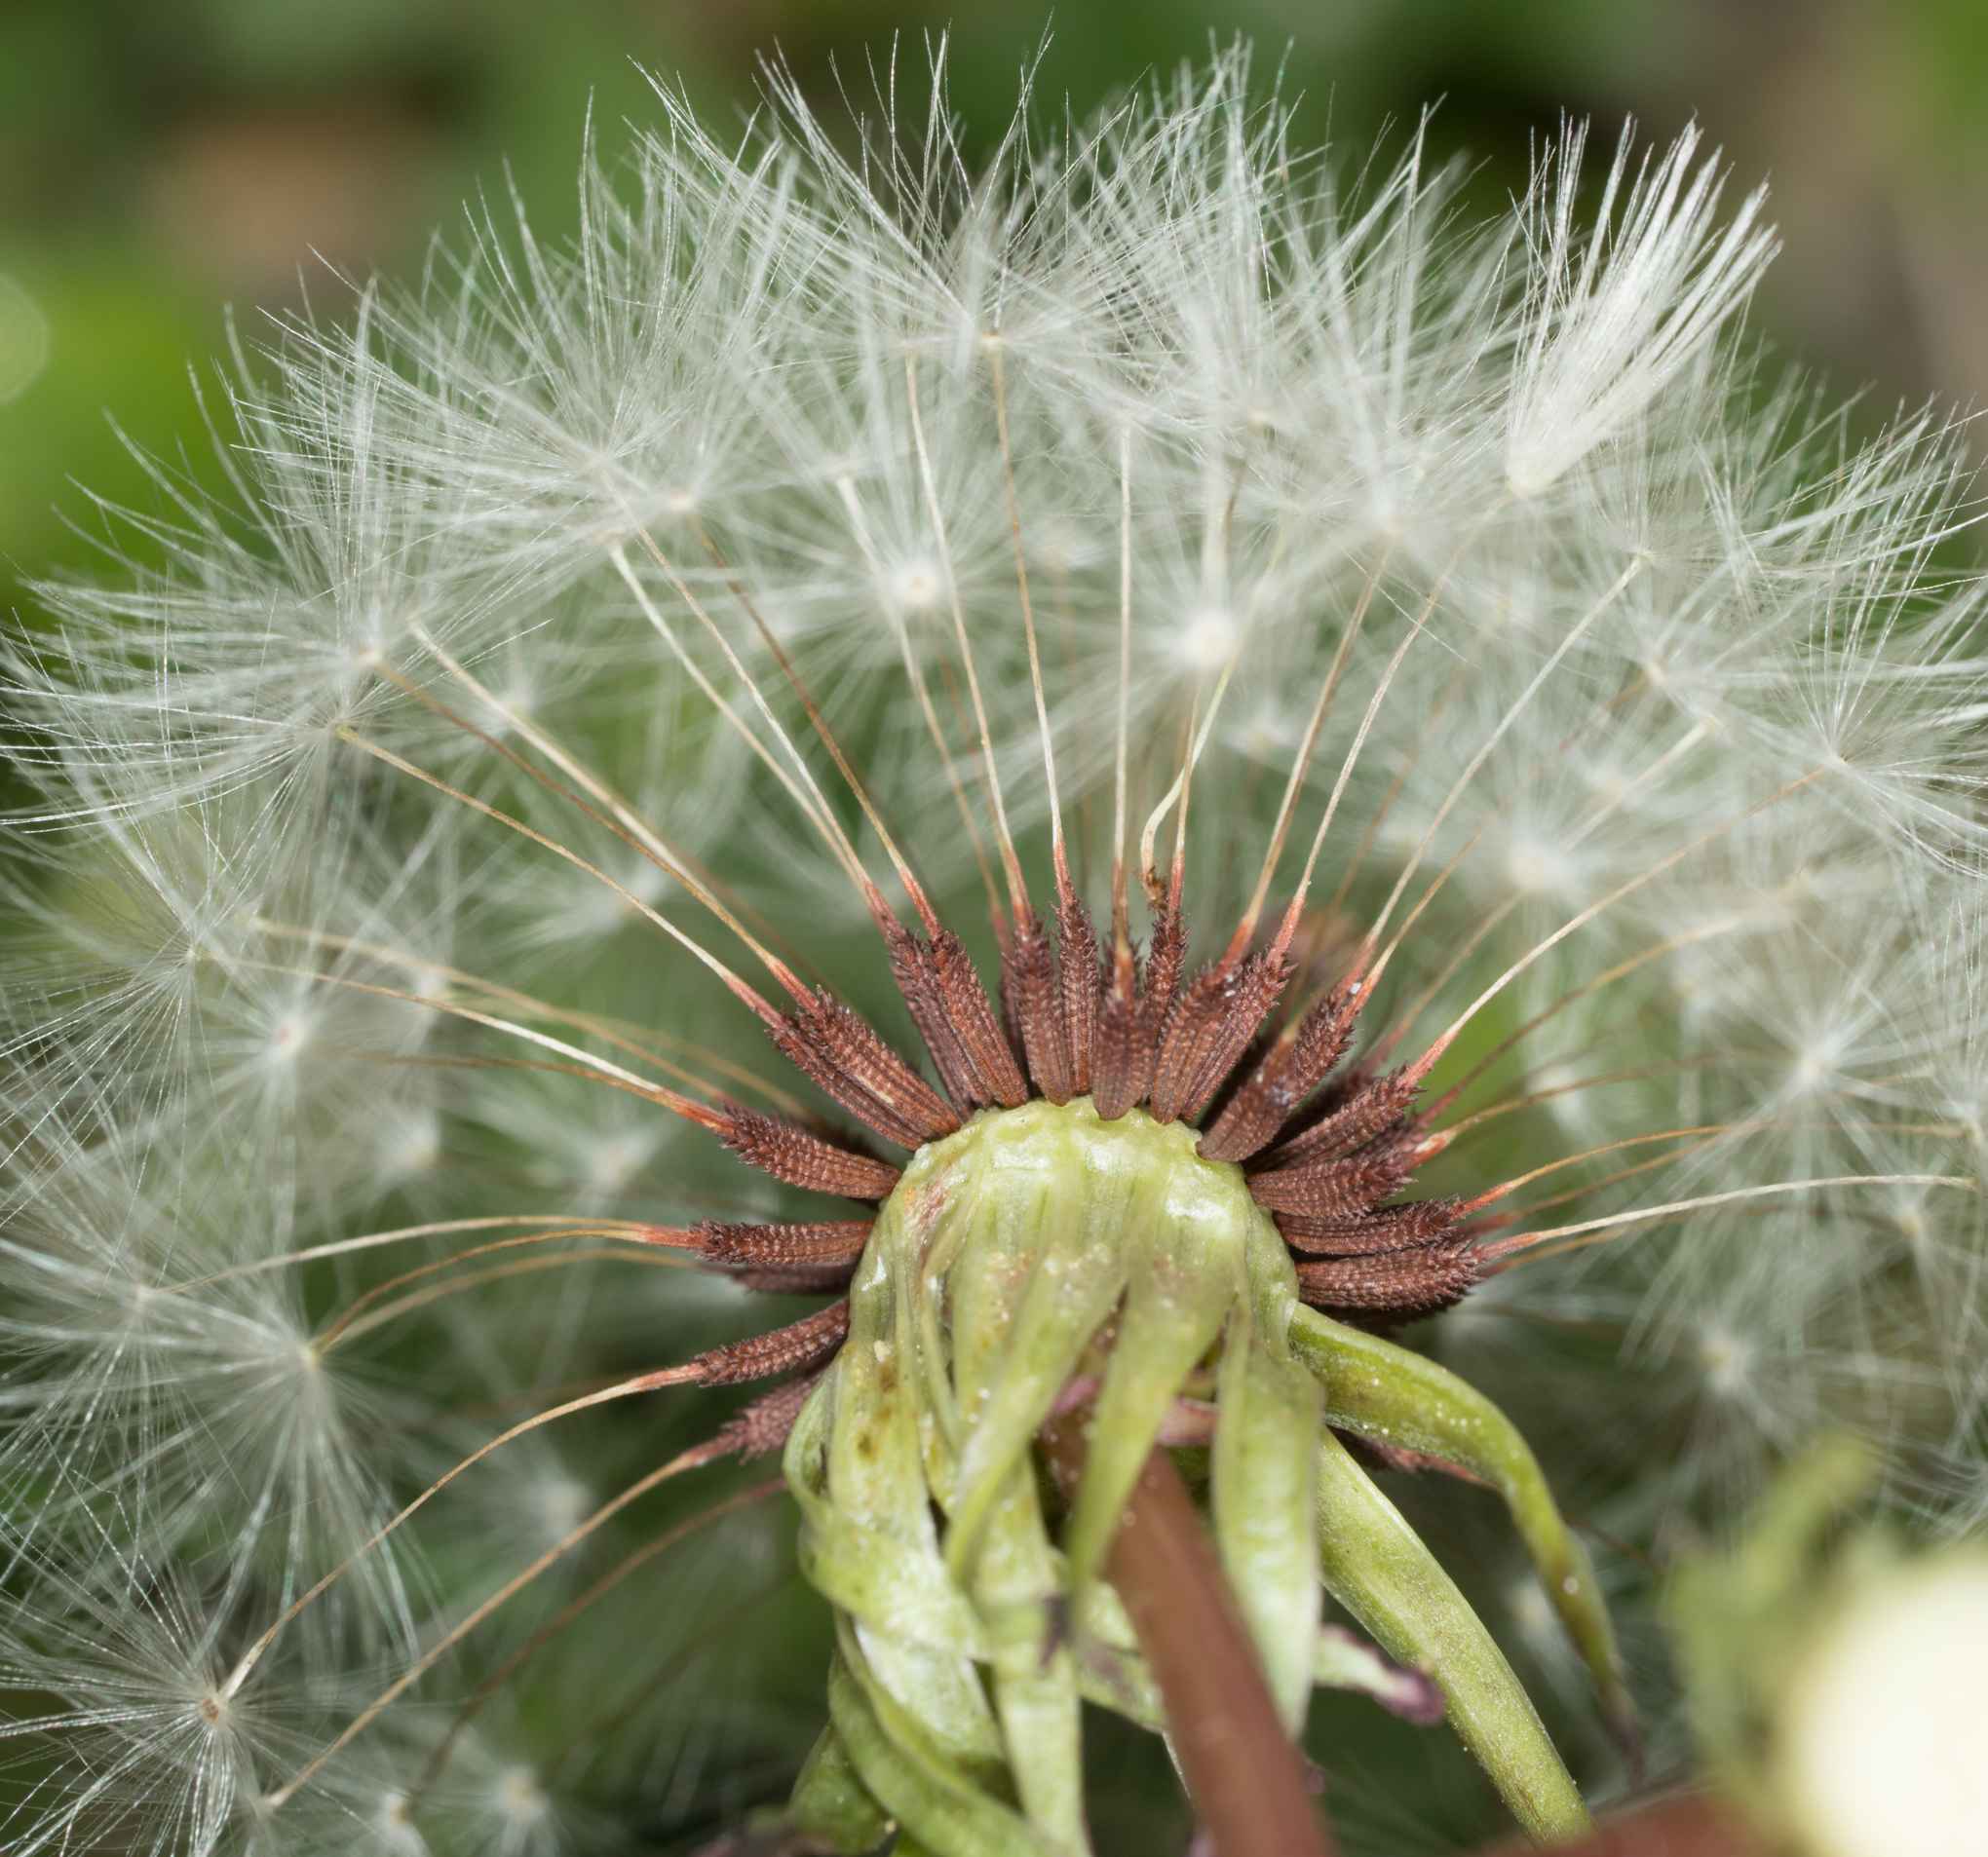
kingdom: Plantae
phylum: Tracheophyta
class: Magnoliopsida
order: Asterales
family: Asteraceae
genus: Taraxacum
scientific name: Taraxacum erythrospermum
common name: Rock dandelion
